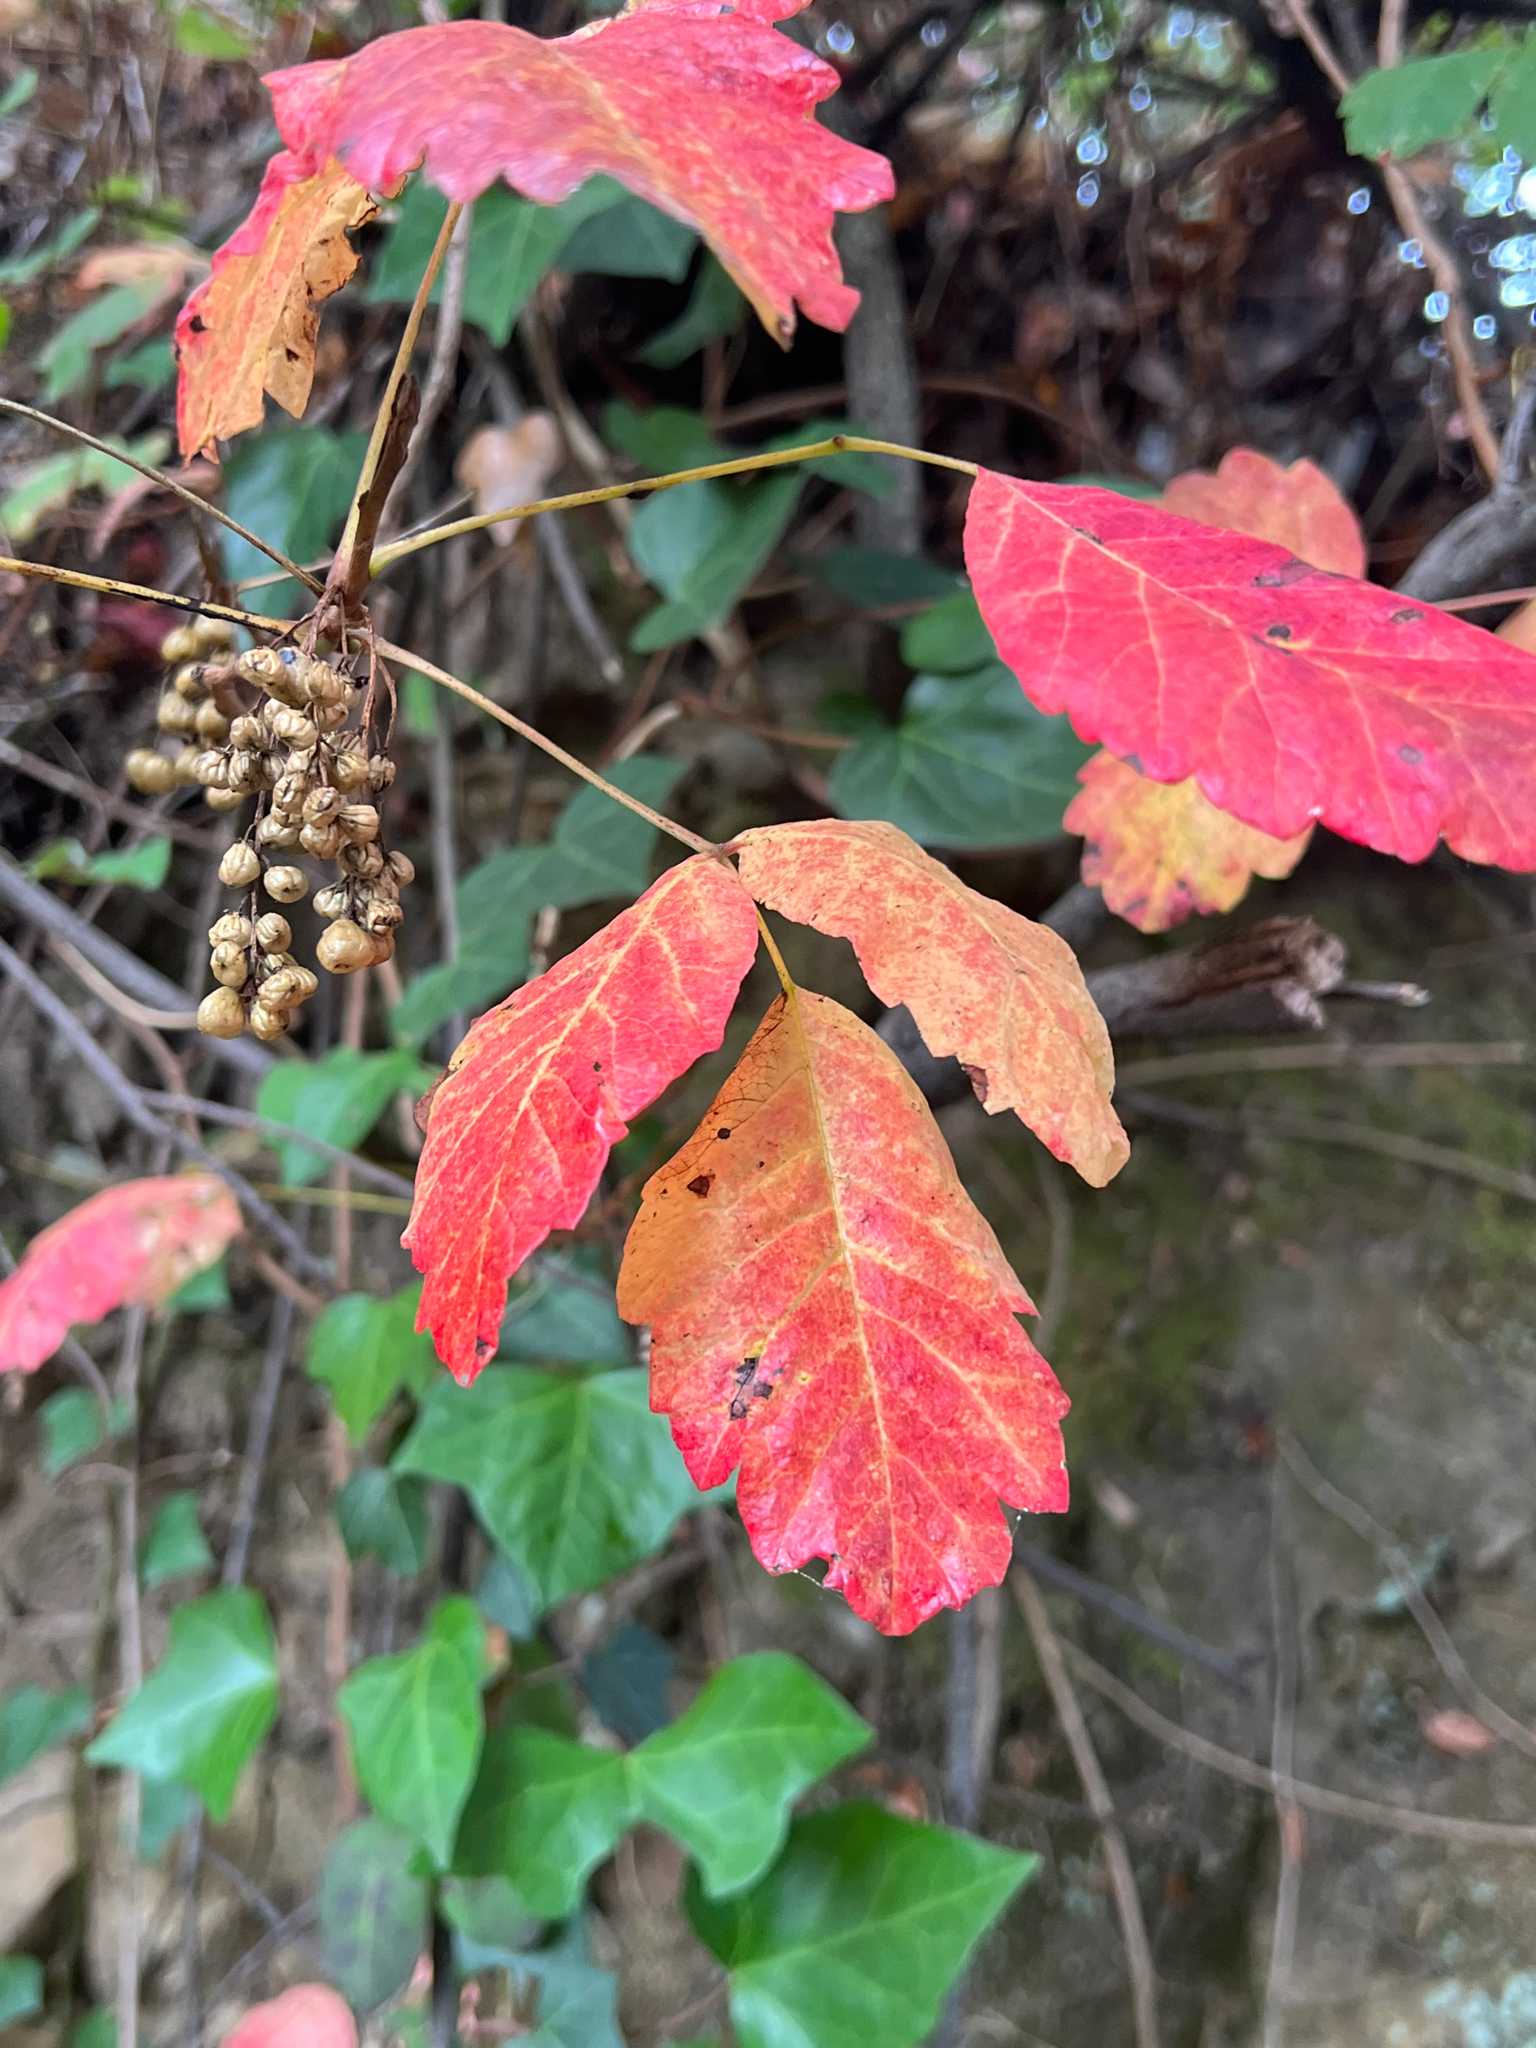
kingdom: Plantae
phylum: Tracheophyta
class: Magnoliopsida
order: Sapindales
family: Anacardiaceae
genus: Toxicodendron
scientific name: Toxicodendron diversilobum
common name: Pacific poison-oak
